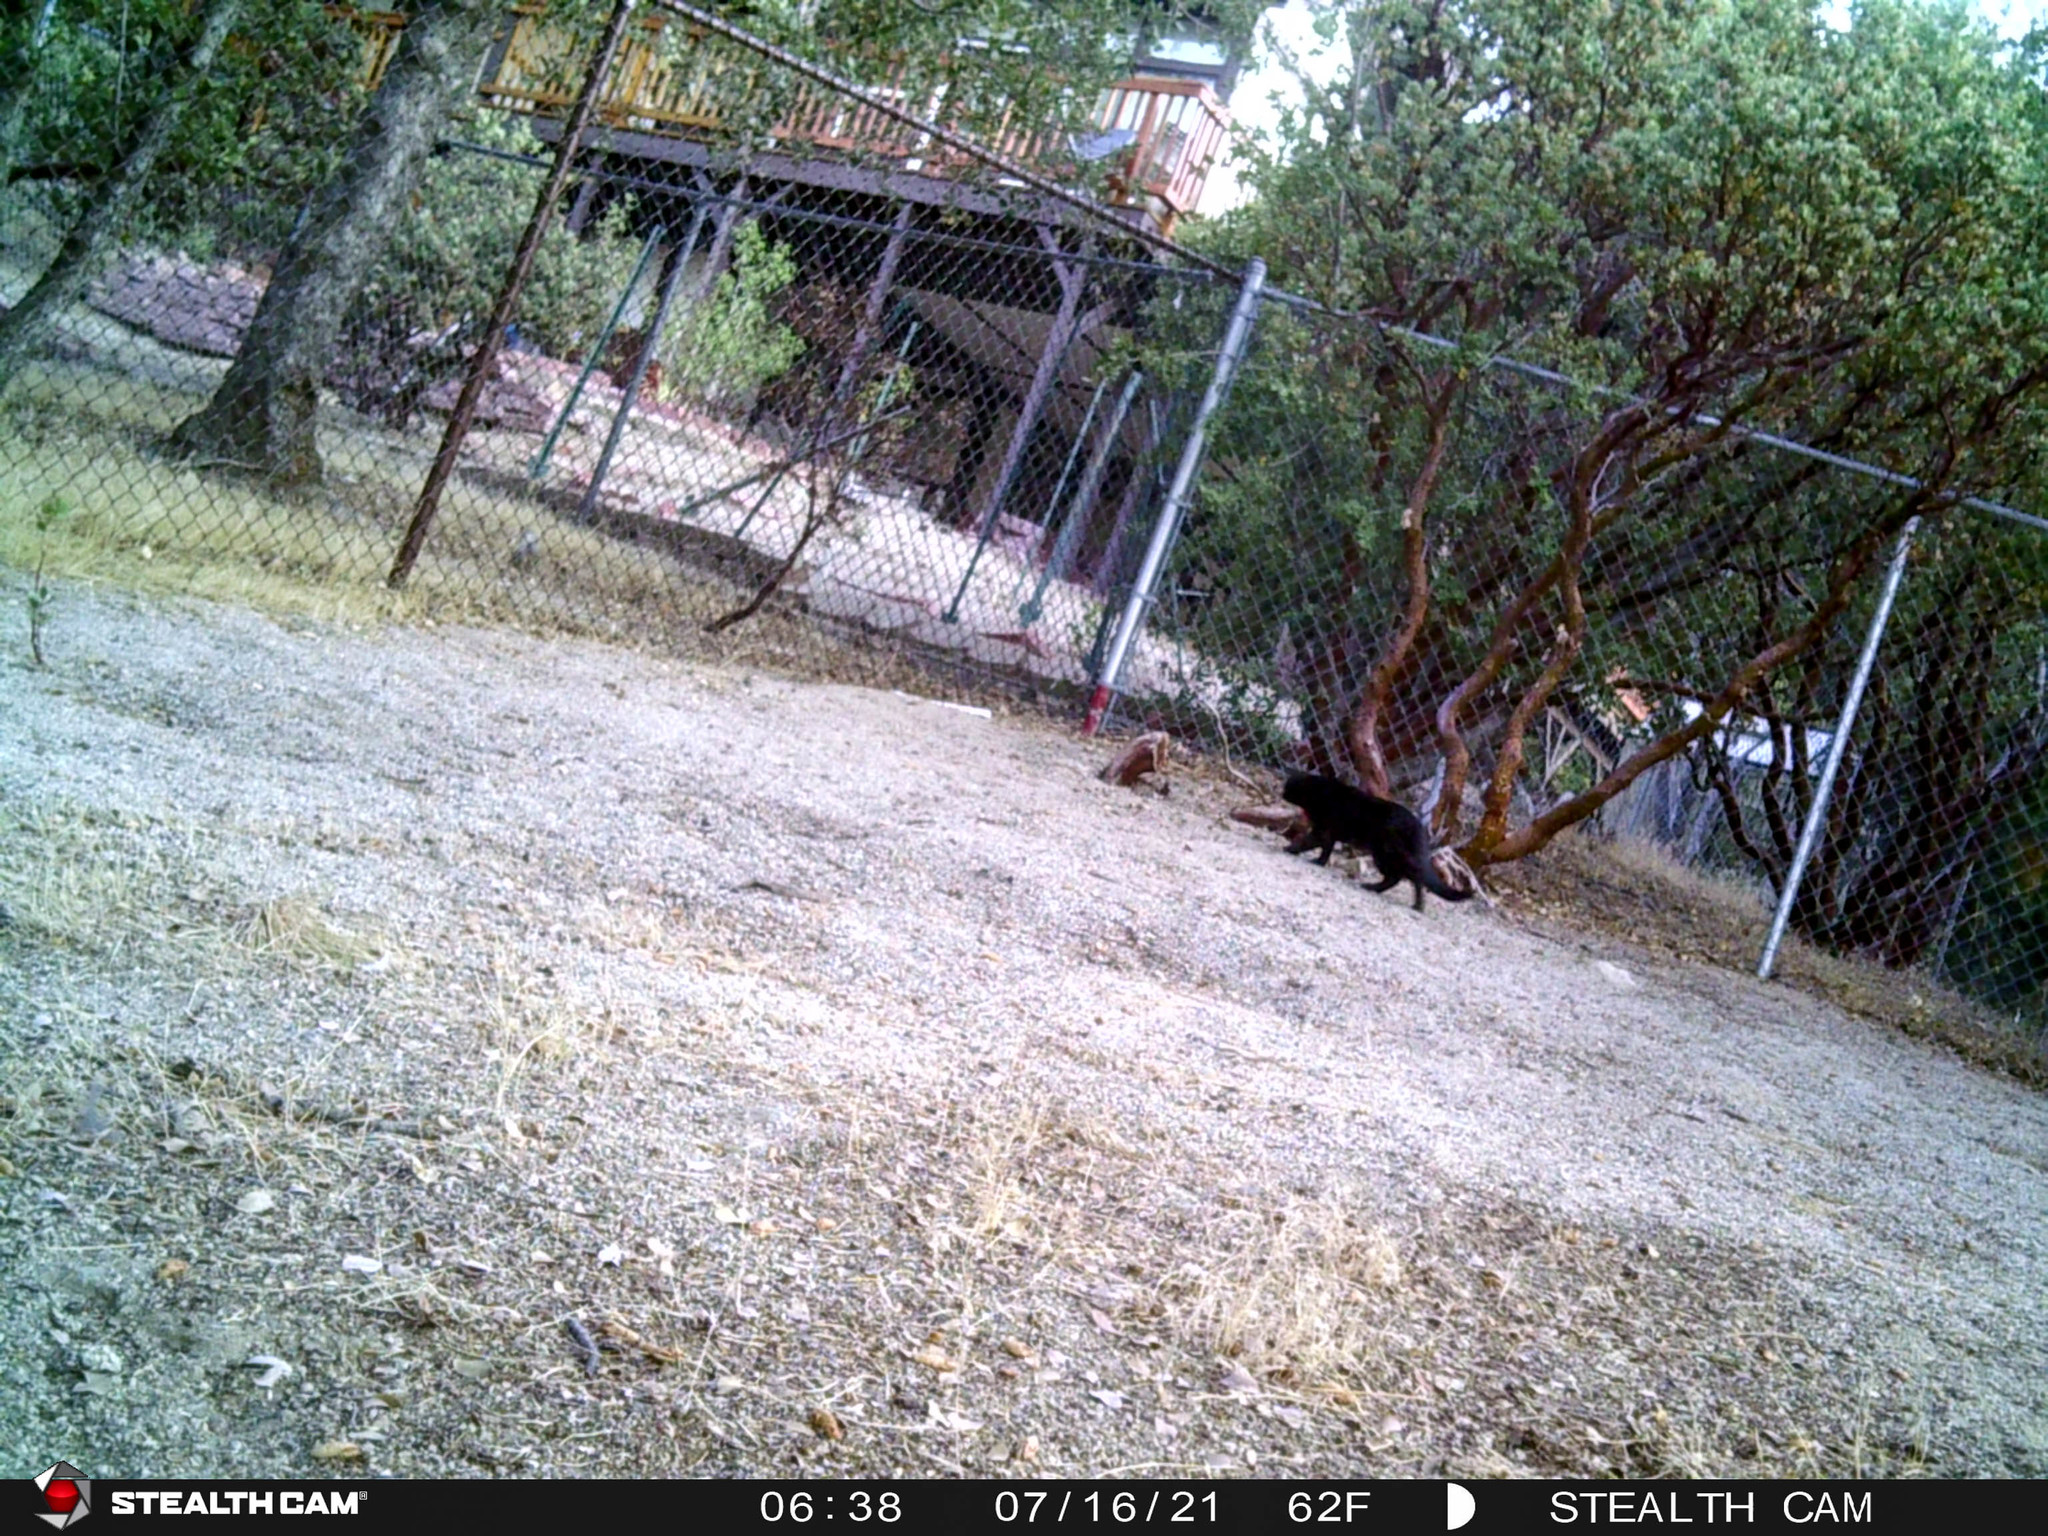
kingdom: Animalia
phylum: Chordata
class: Mammalia
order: Carnivora
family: Felidae
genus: Felis
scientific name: Felis catus
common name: Domestic cat
